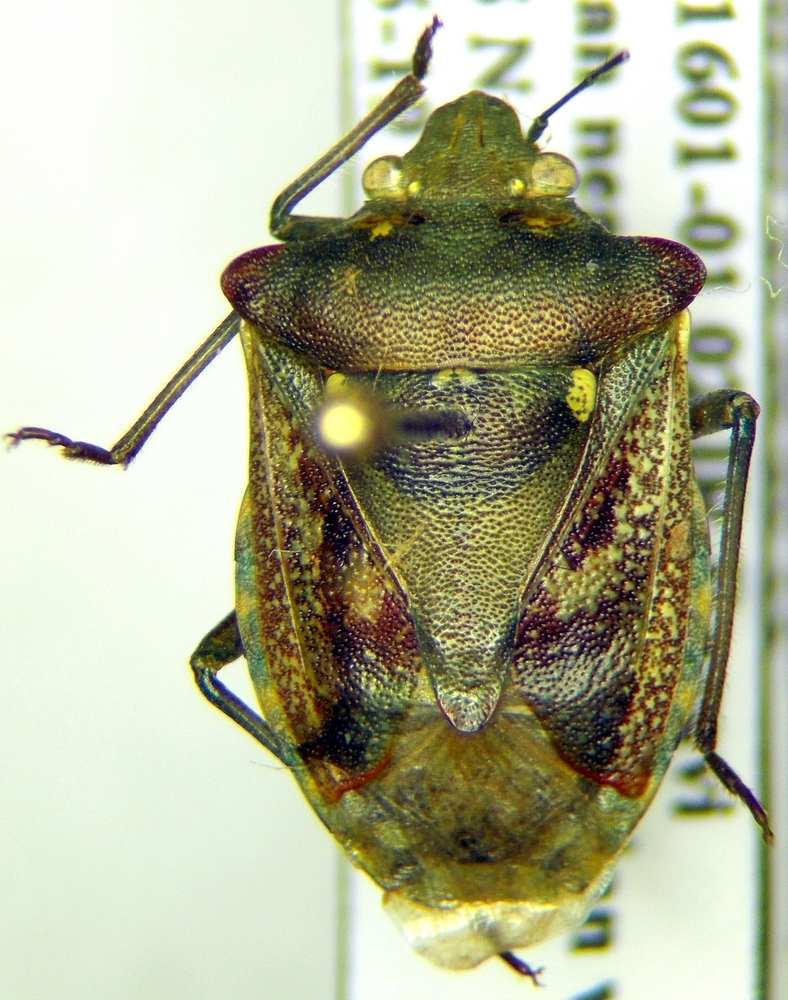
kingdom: Animalia
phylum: Arthropoda
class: Insecta
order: Hemiptera
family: Pentatomidae
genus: Croantha
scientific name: Croantha ornatula
